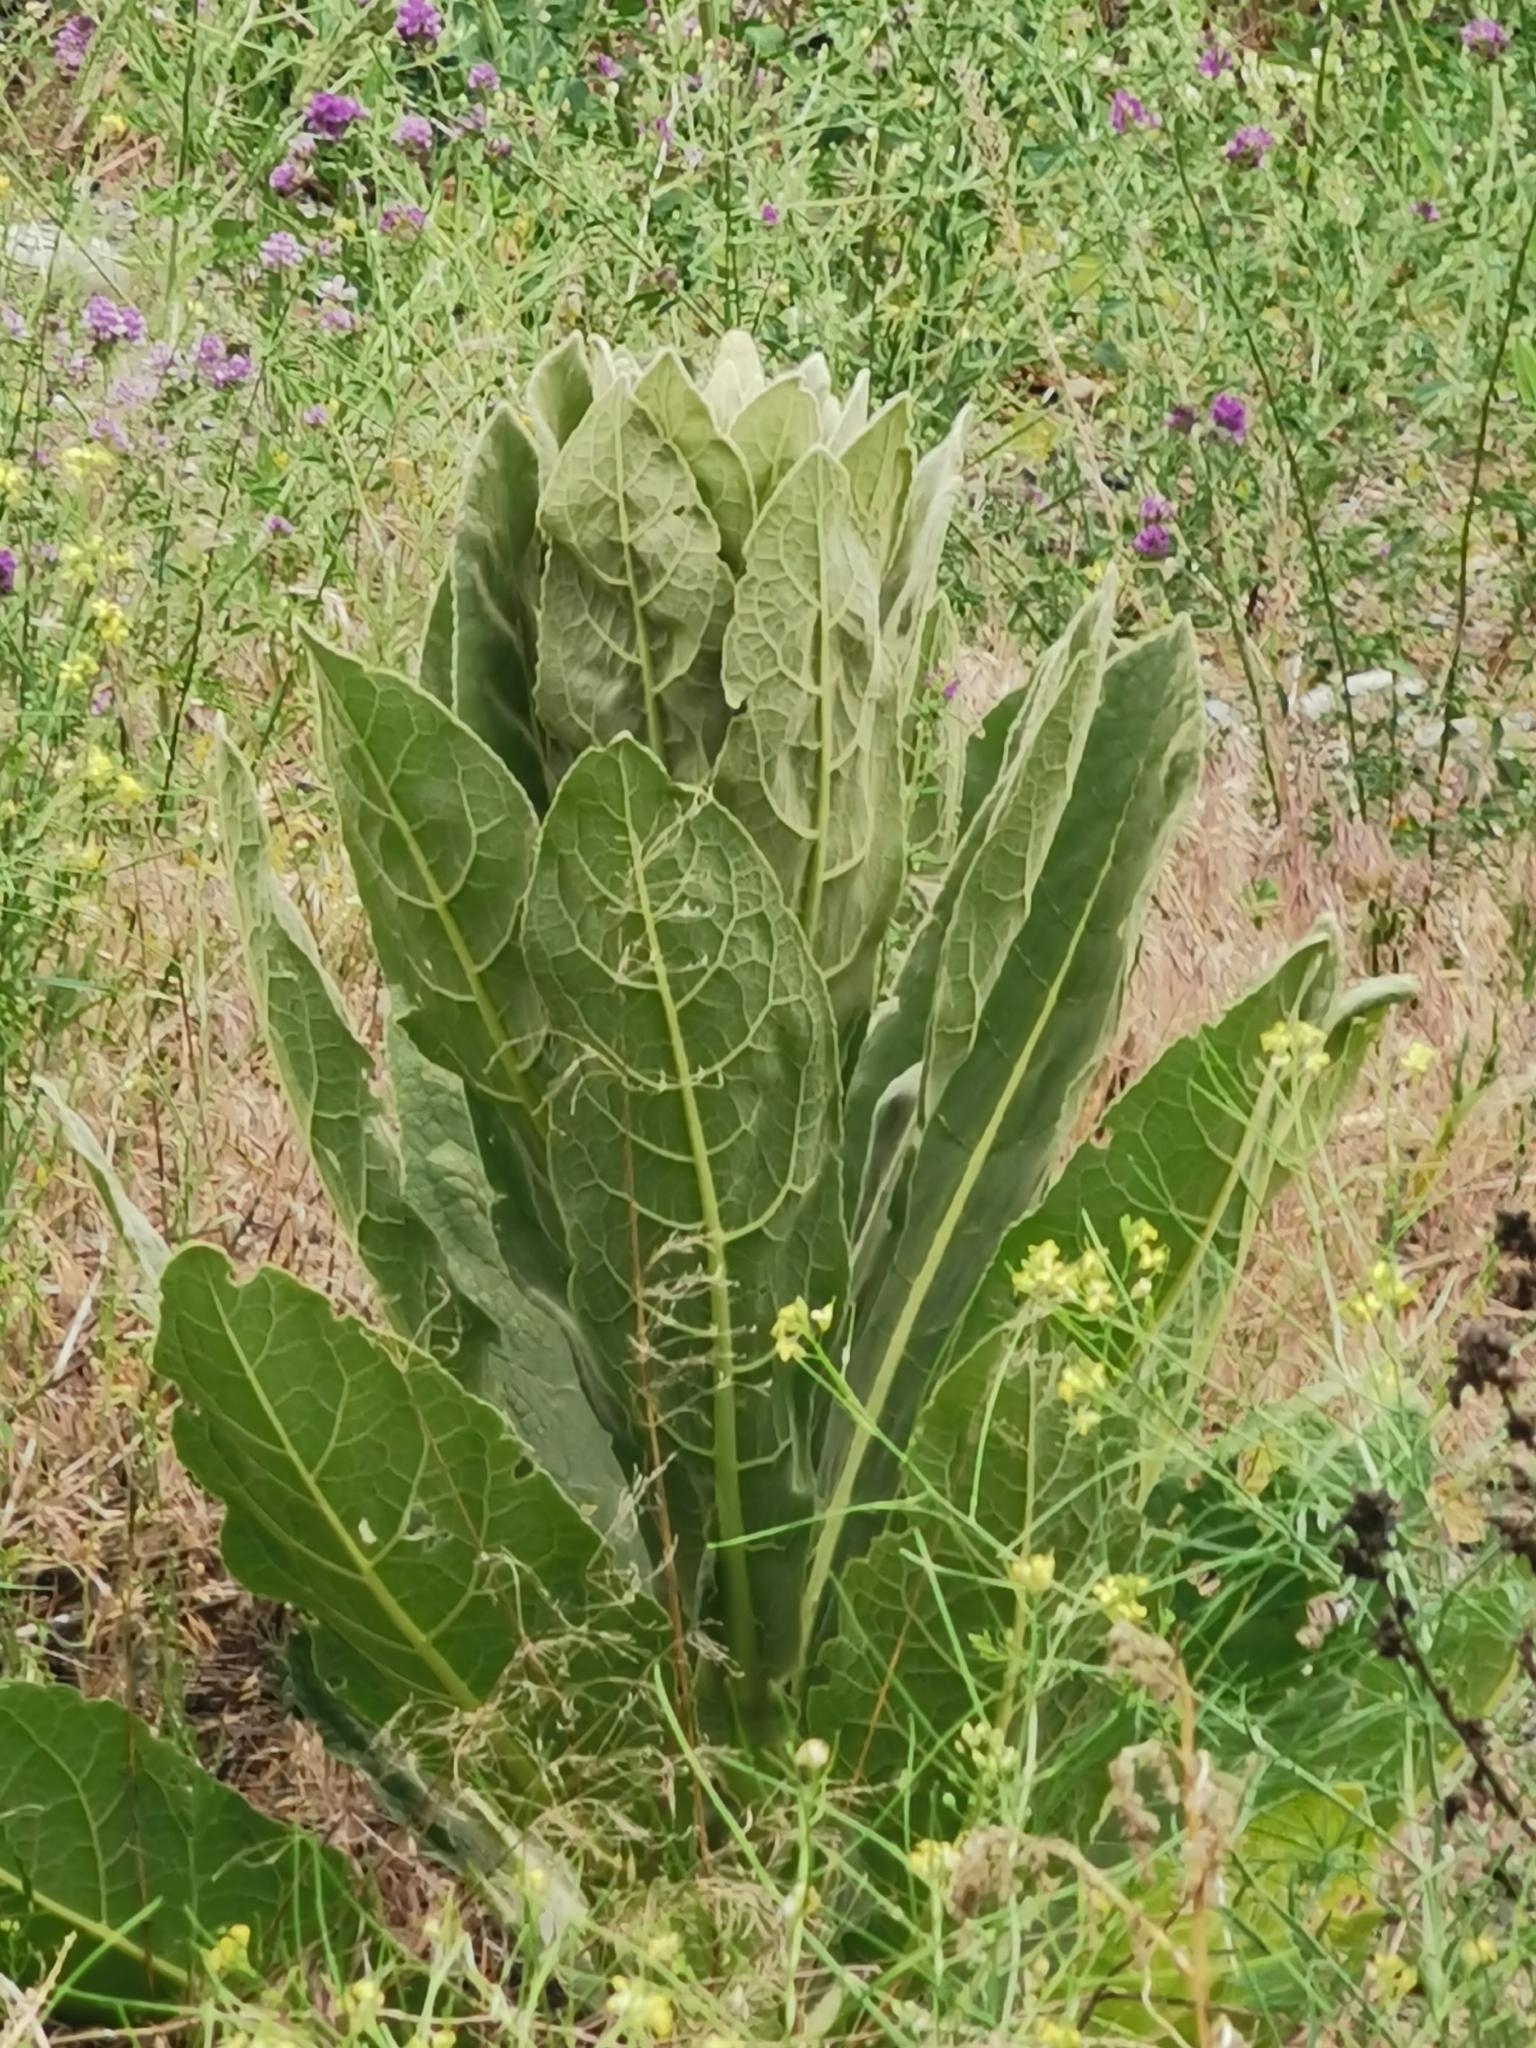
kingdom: Plantae
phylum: Tracheophyta
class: Magnoliopsida
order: Lamiales
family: Scrophulariaceae
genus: Verbascum
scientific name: Verbascum thapsus
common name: Common mullein
